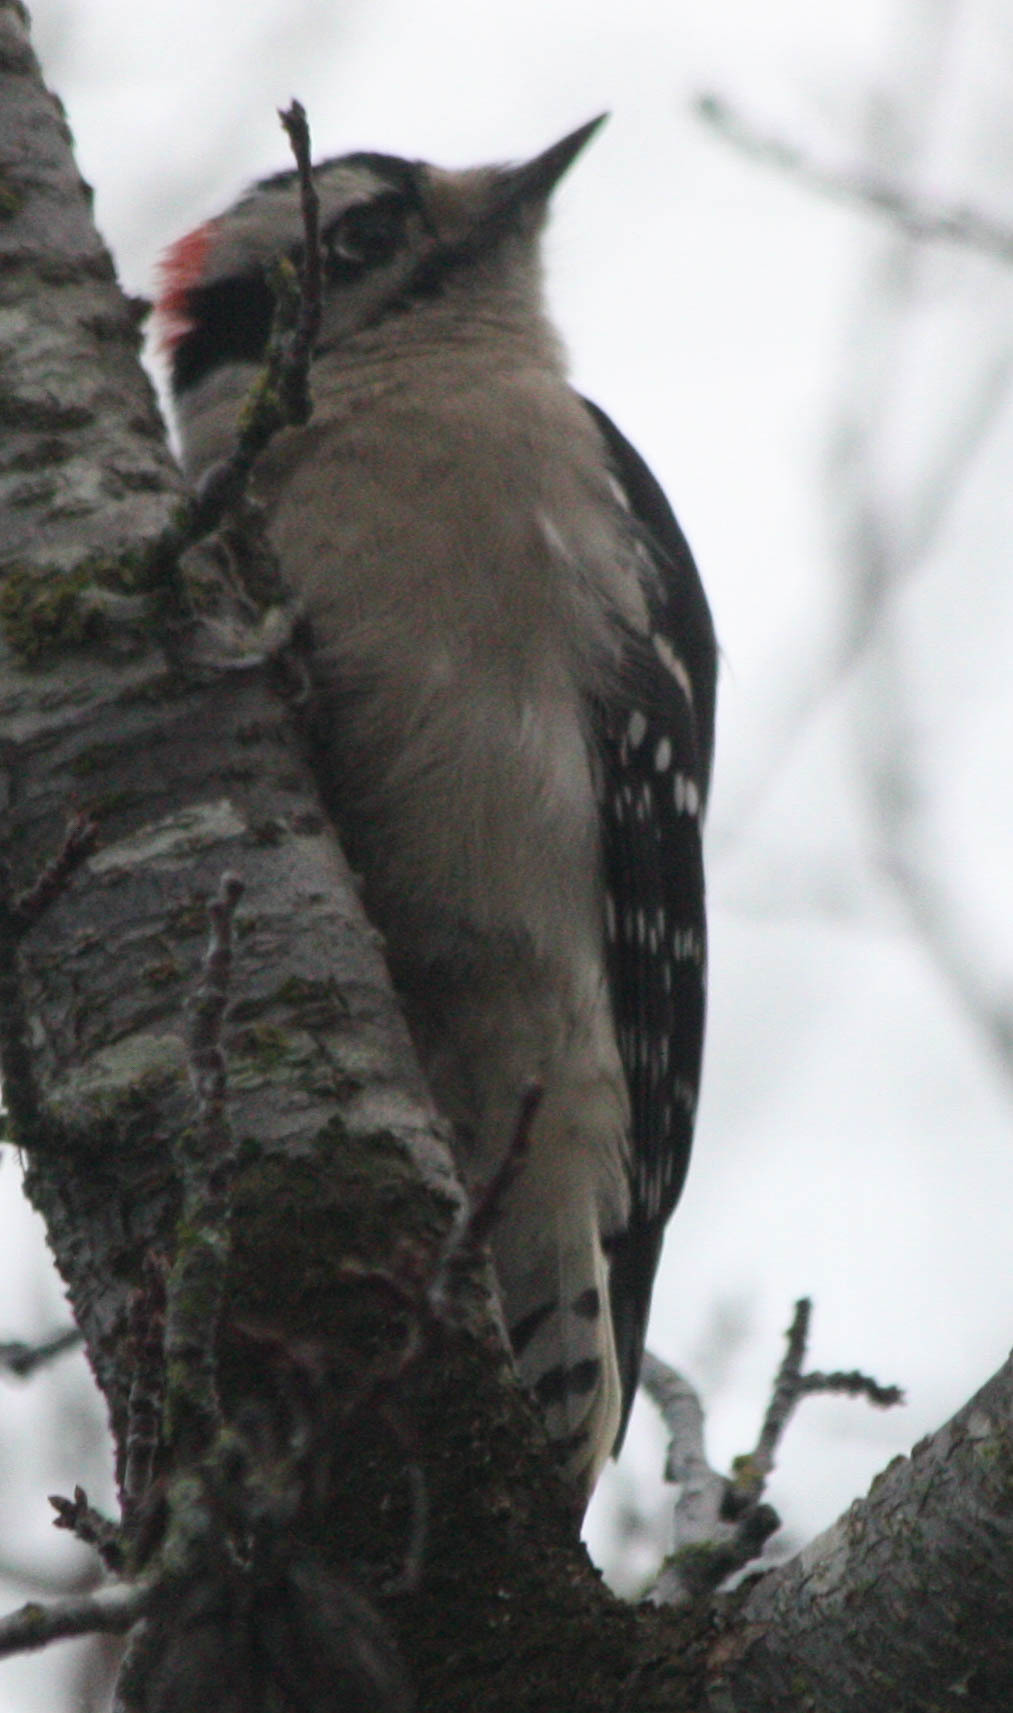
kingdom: Animalia
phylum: Chordata
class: Aves
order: Piciformes
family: Picidae
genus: Dryobates
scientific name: Dryobates pubescens
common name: Downy woodpecker
